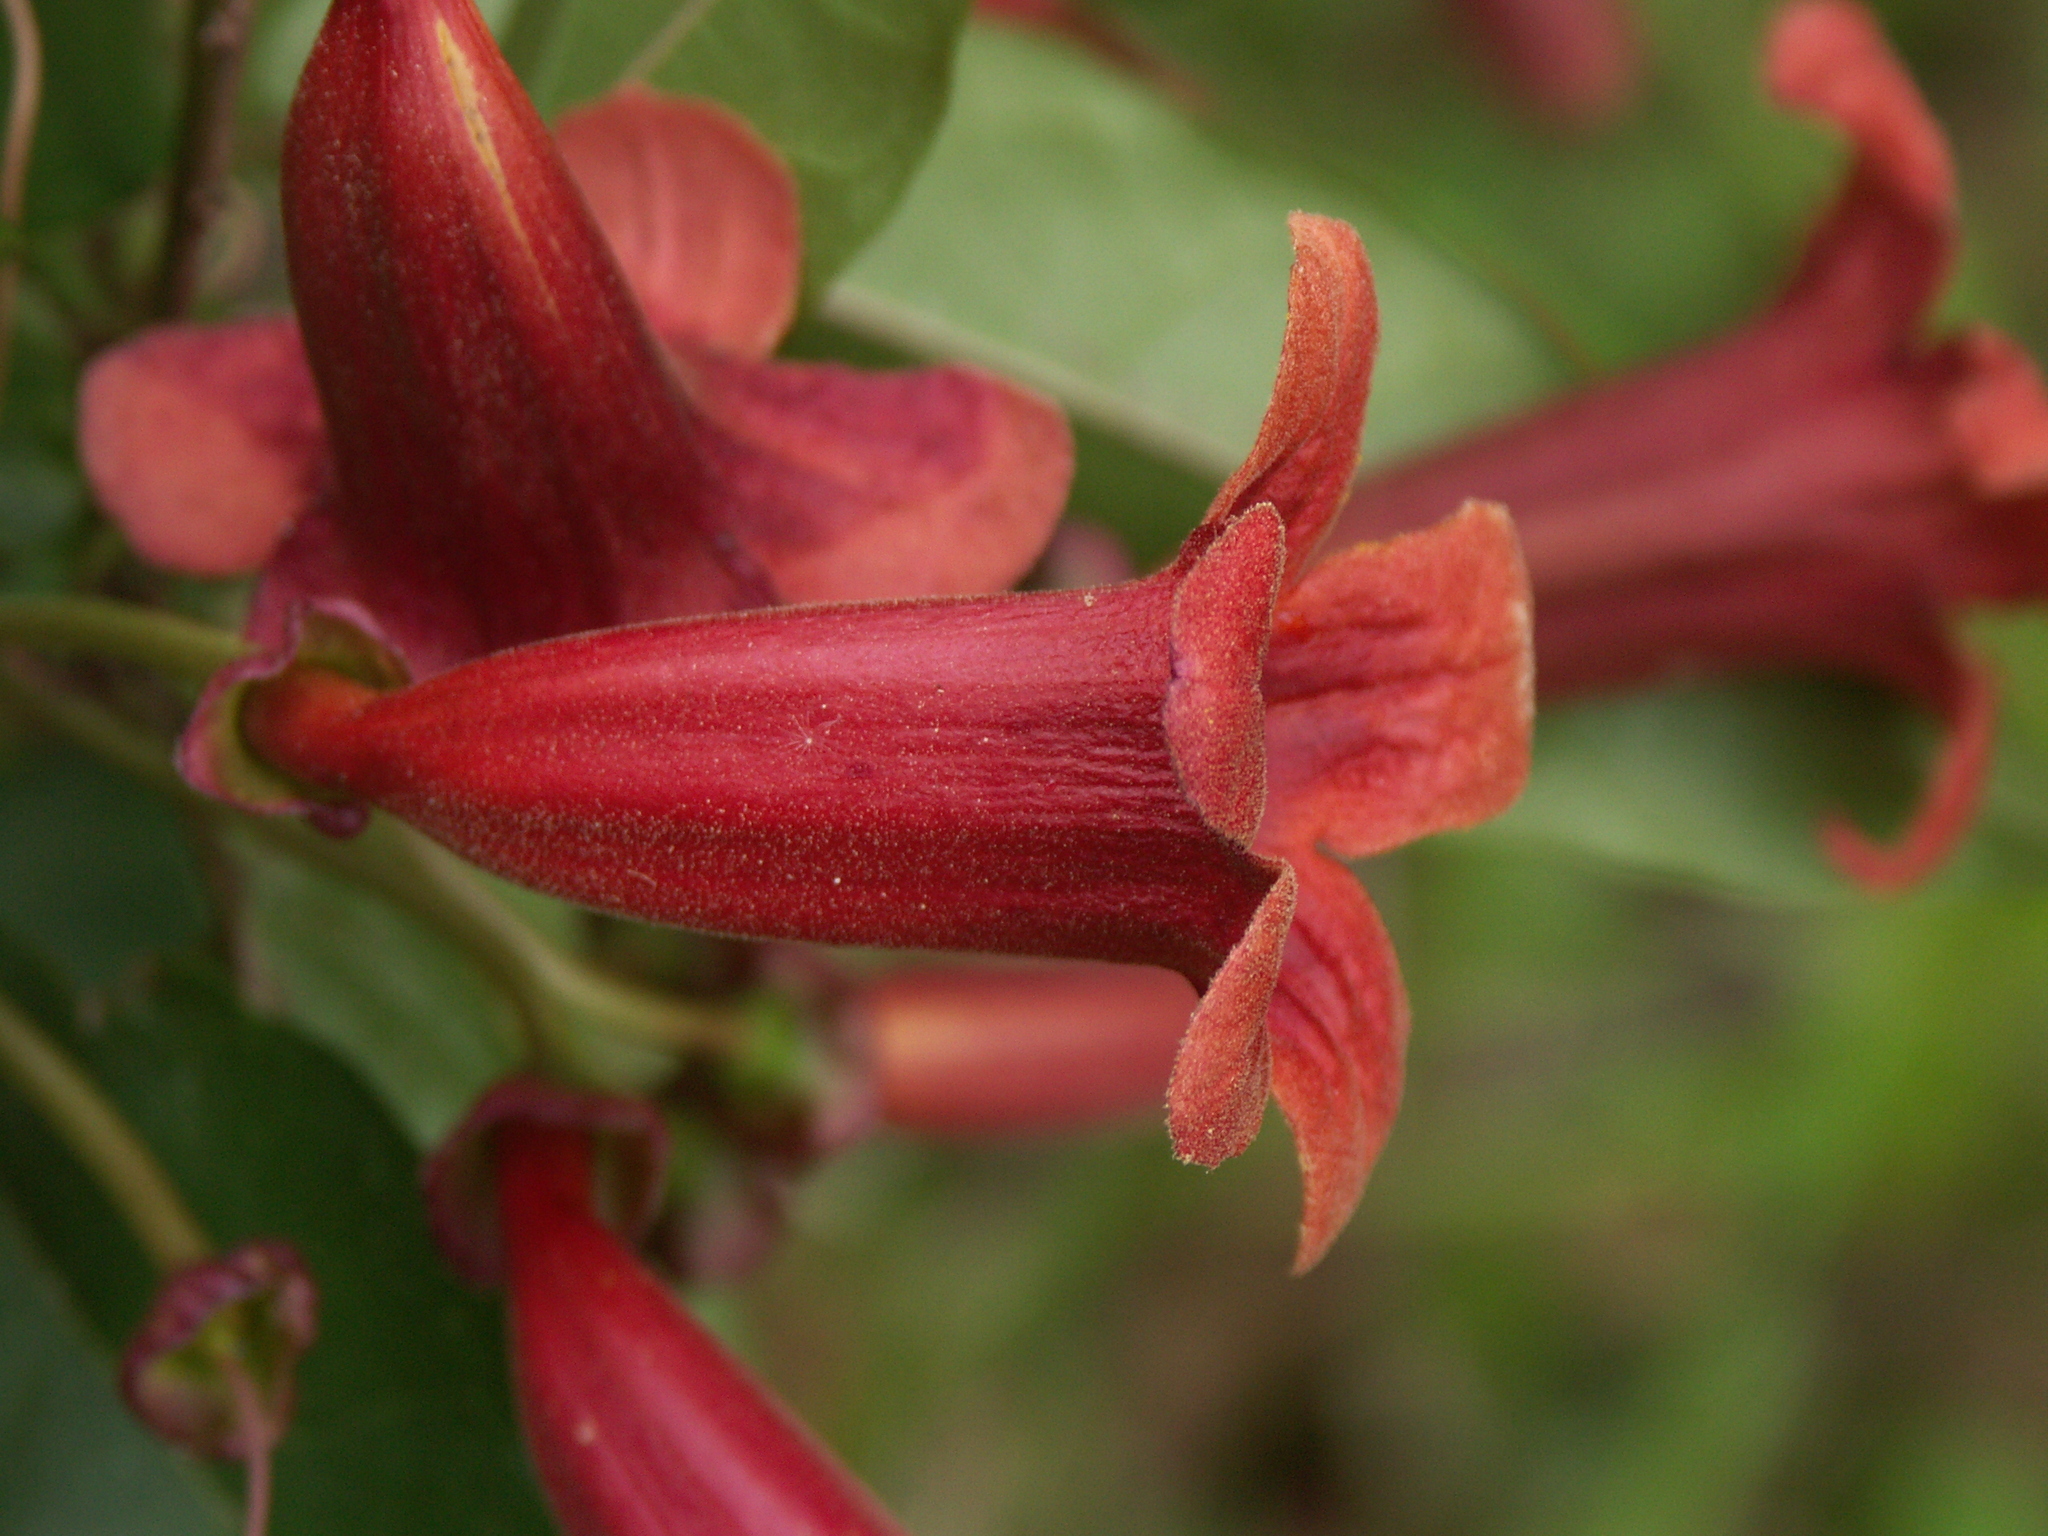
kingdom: Plantae
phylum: Tracheophyta
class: Magnoliopsida
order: Lamiales
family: Bignoniaceae
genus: Bignonia
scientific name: Bignonia capreolata
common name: Crossvine
